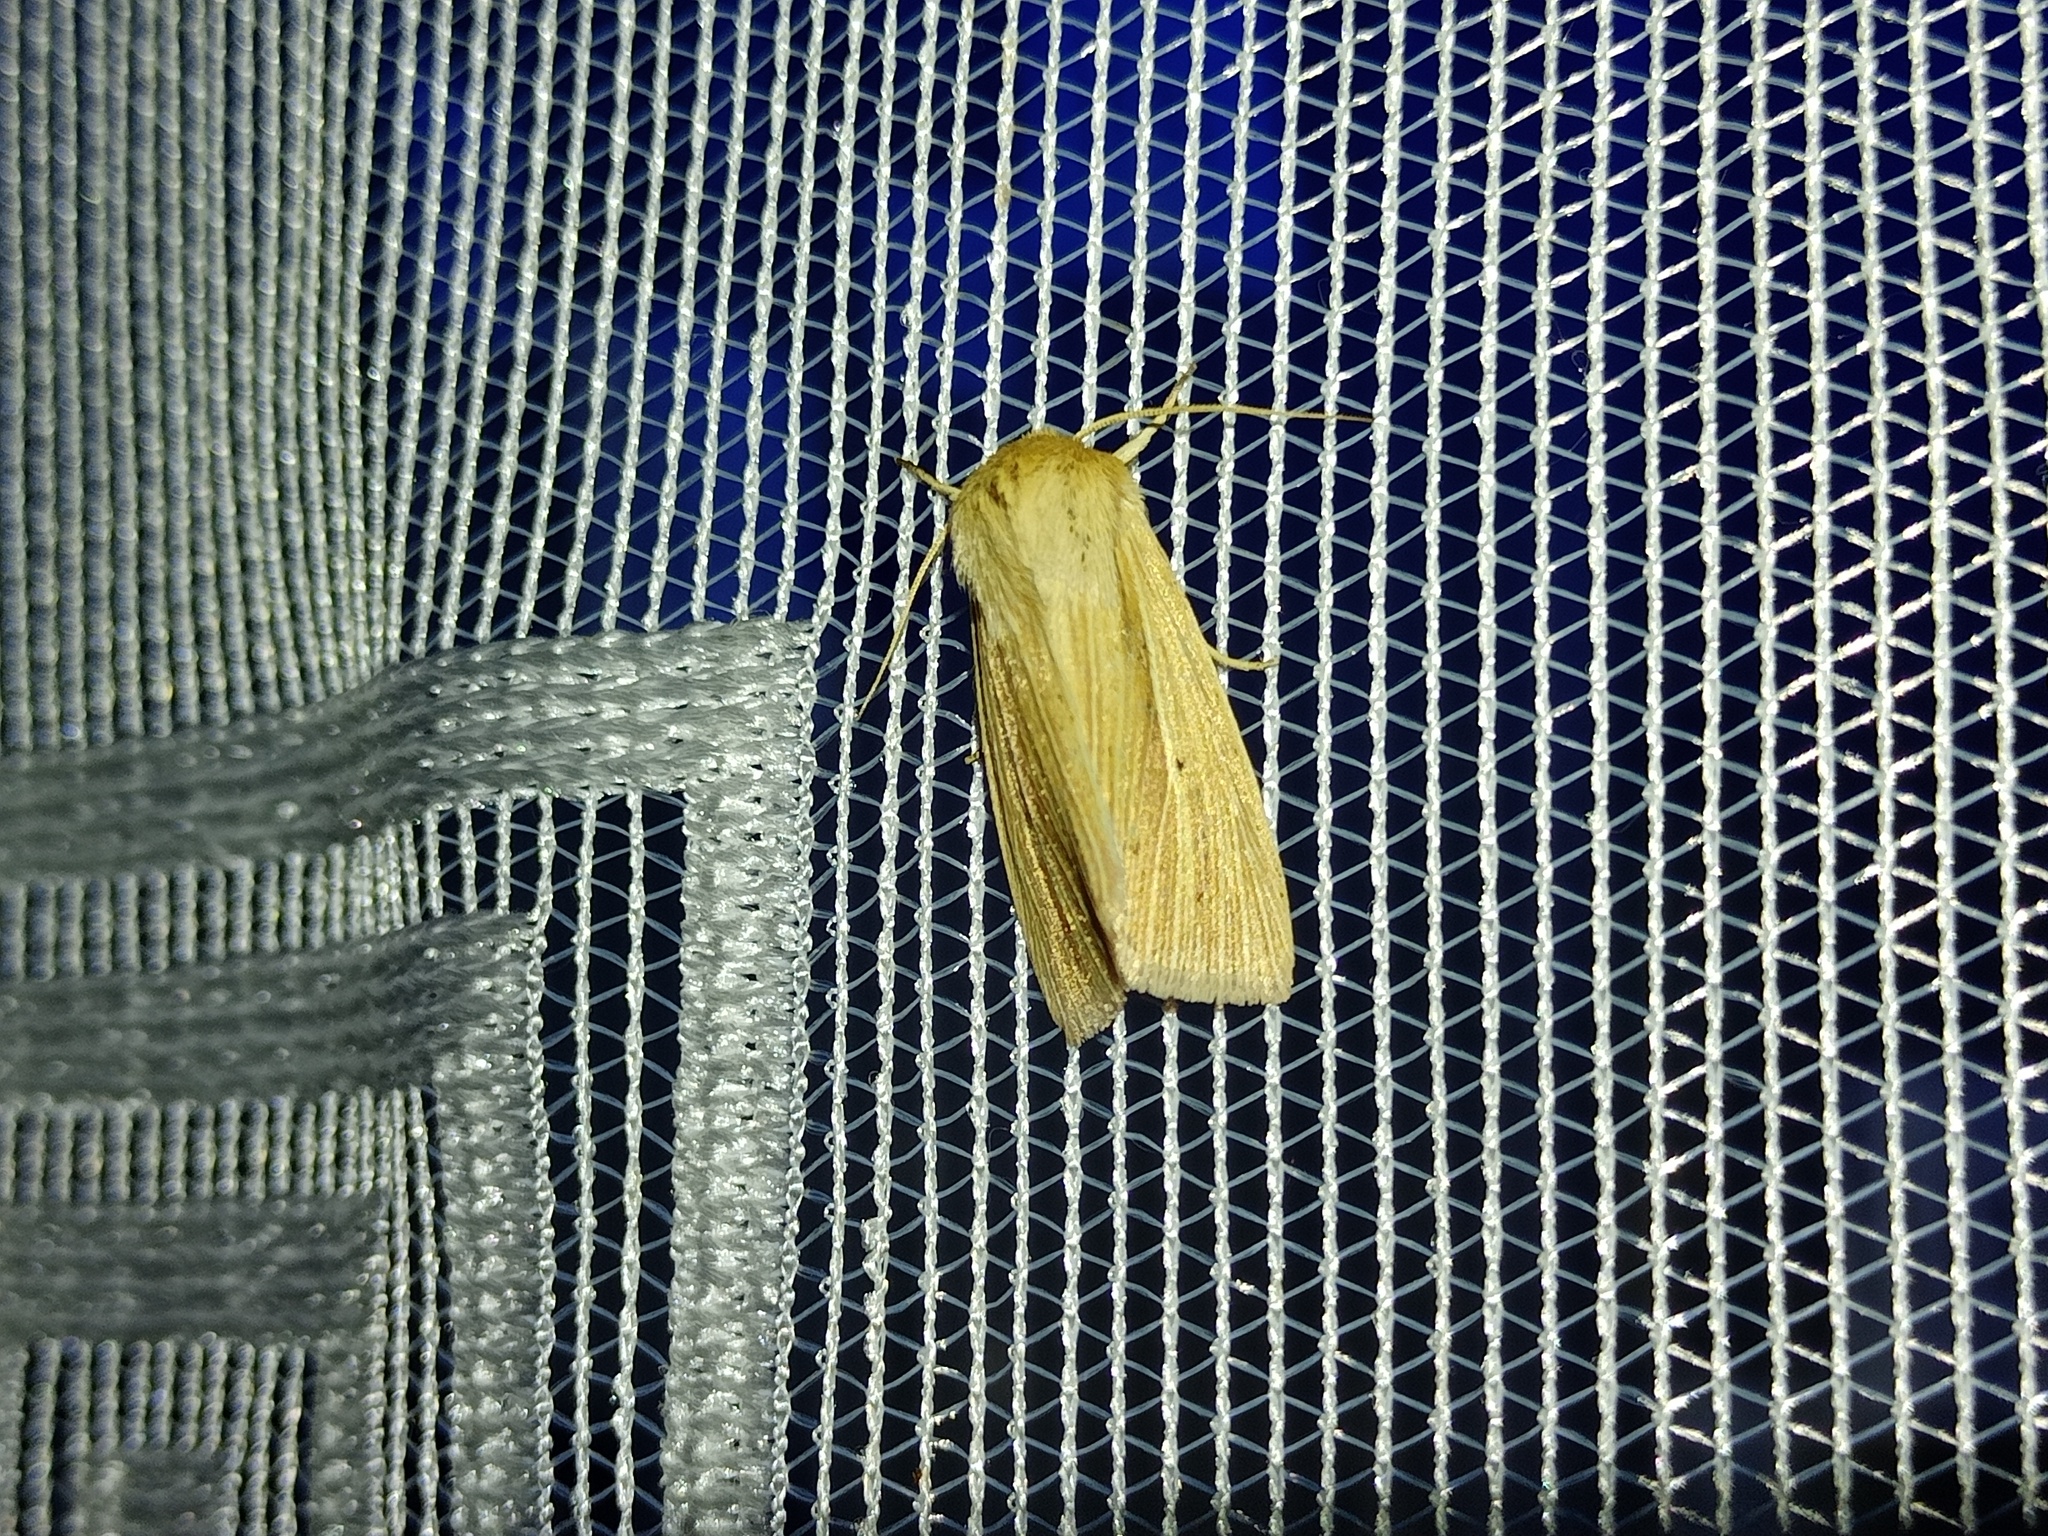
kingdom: Animalia
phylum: Arthropoda
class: Insecta
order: Lepidoptera
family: Noctuidae
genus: Mythimna
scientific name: Mythimna impura
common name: Smoky wainscot
